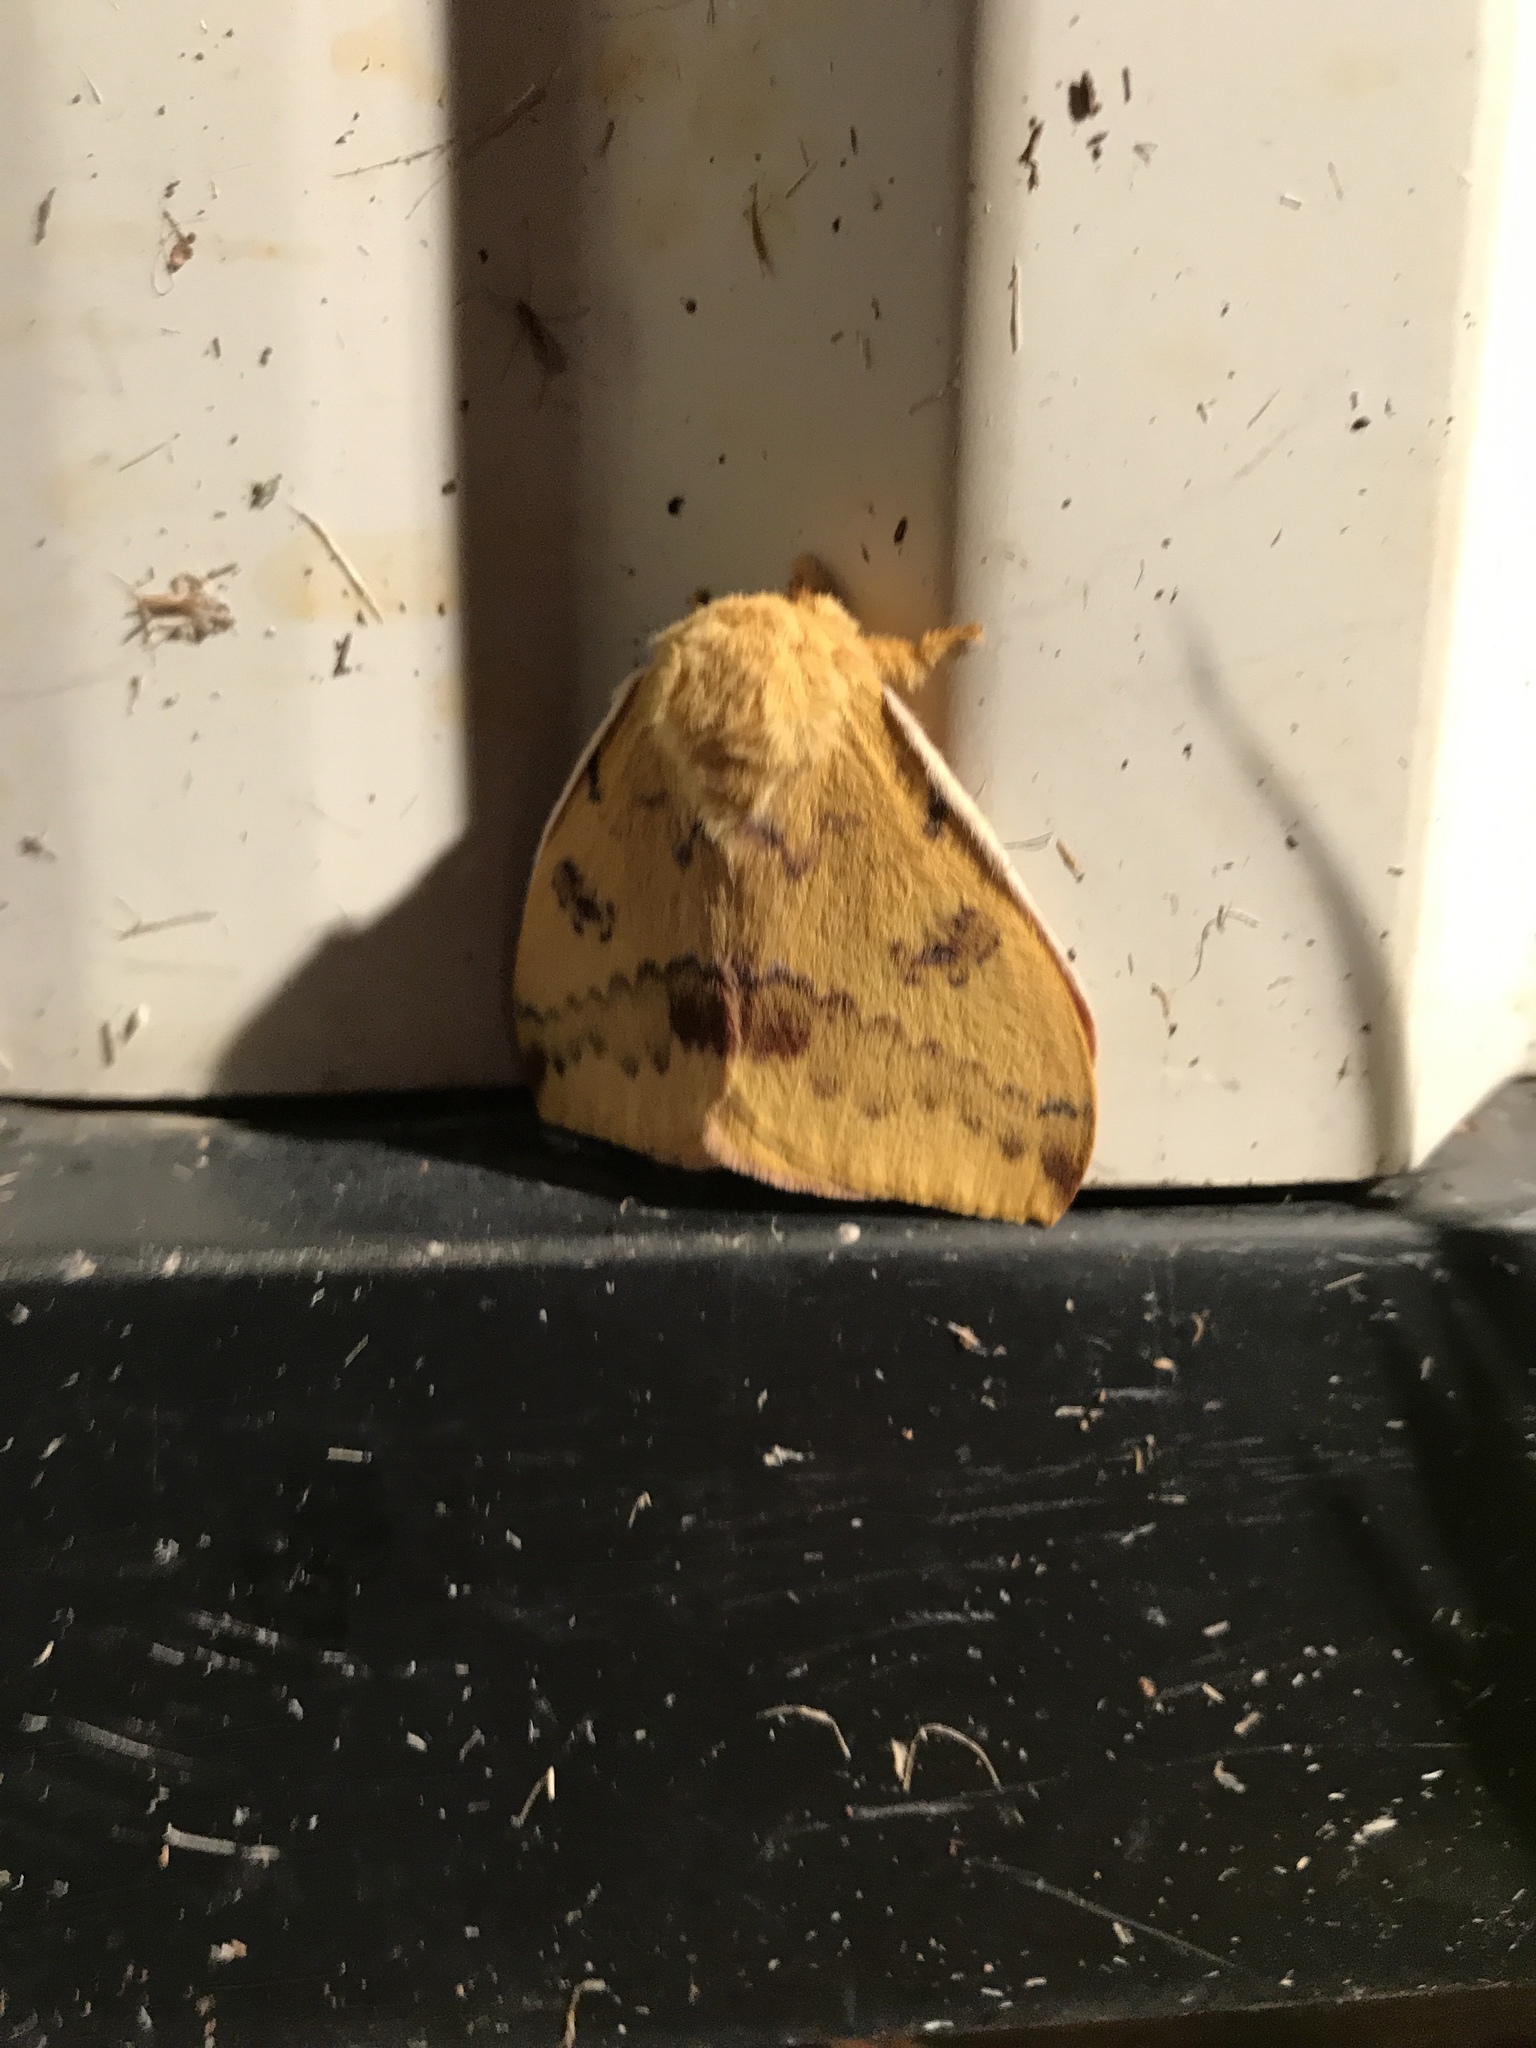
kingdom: Animalia
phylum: Arthropoda
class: Insecta
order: Lepidoptera
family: Saturniidae
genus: Automeris
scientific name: Automeris io
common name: Io moth
